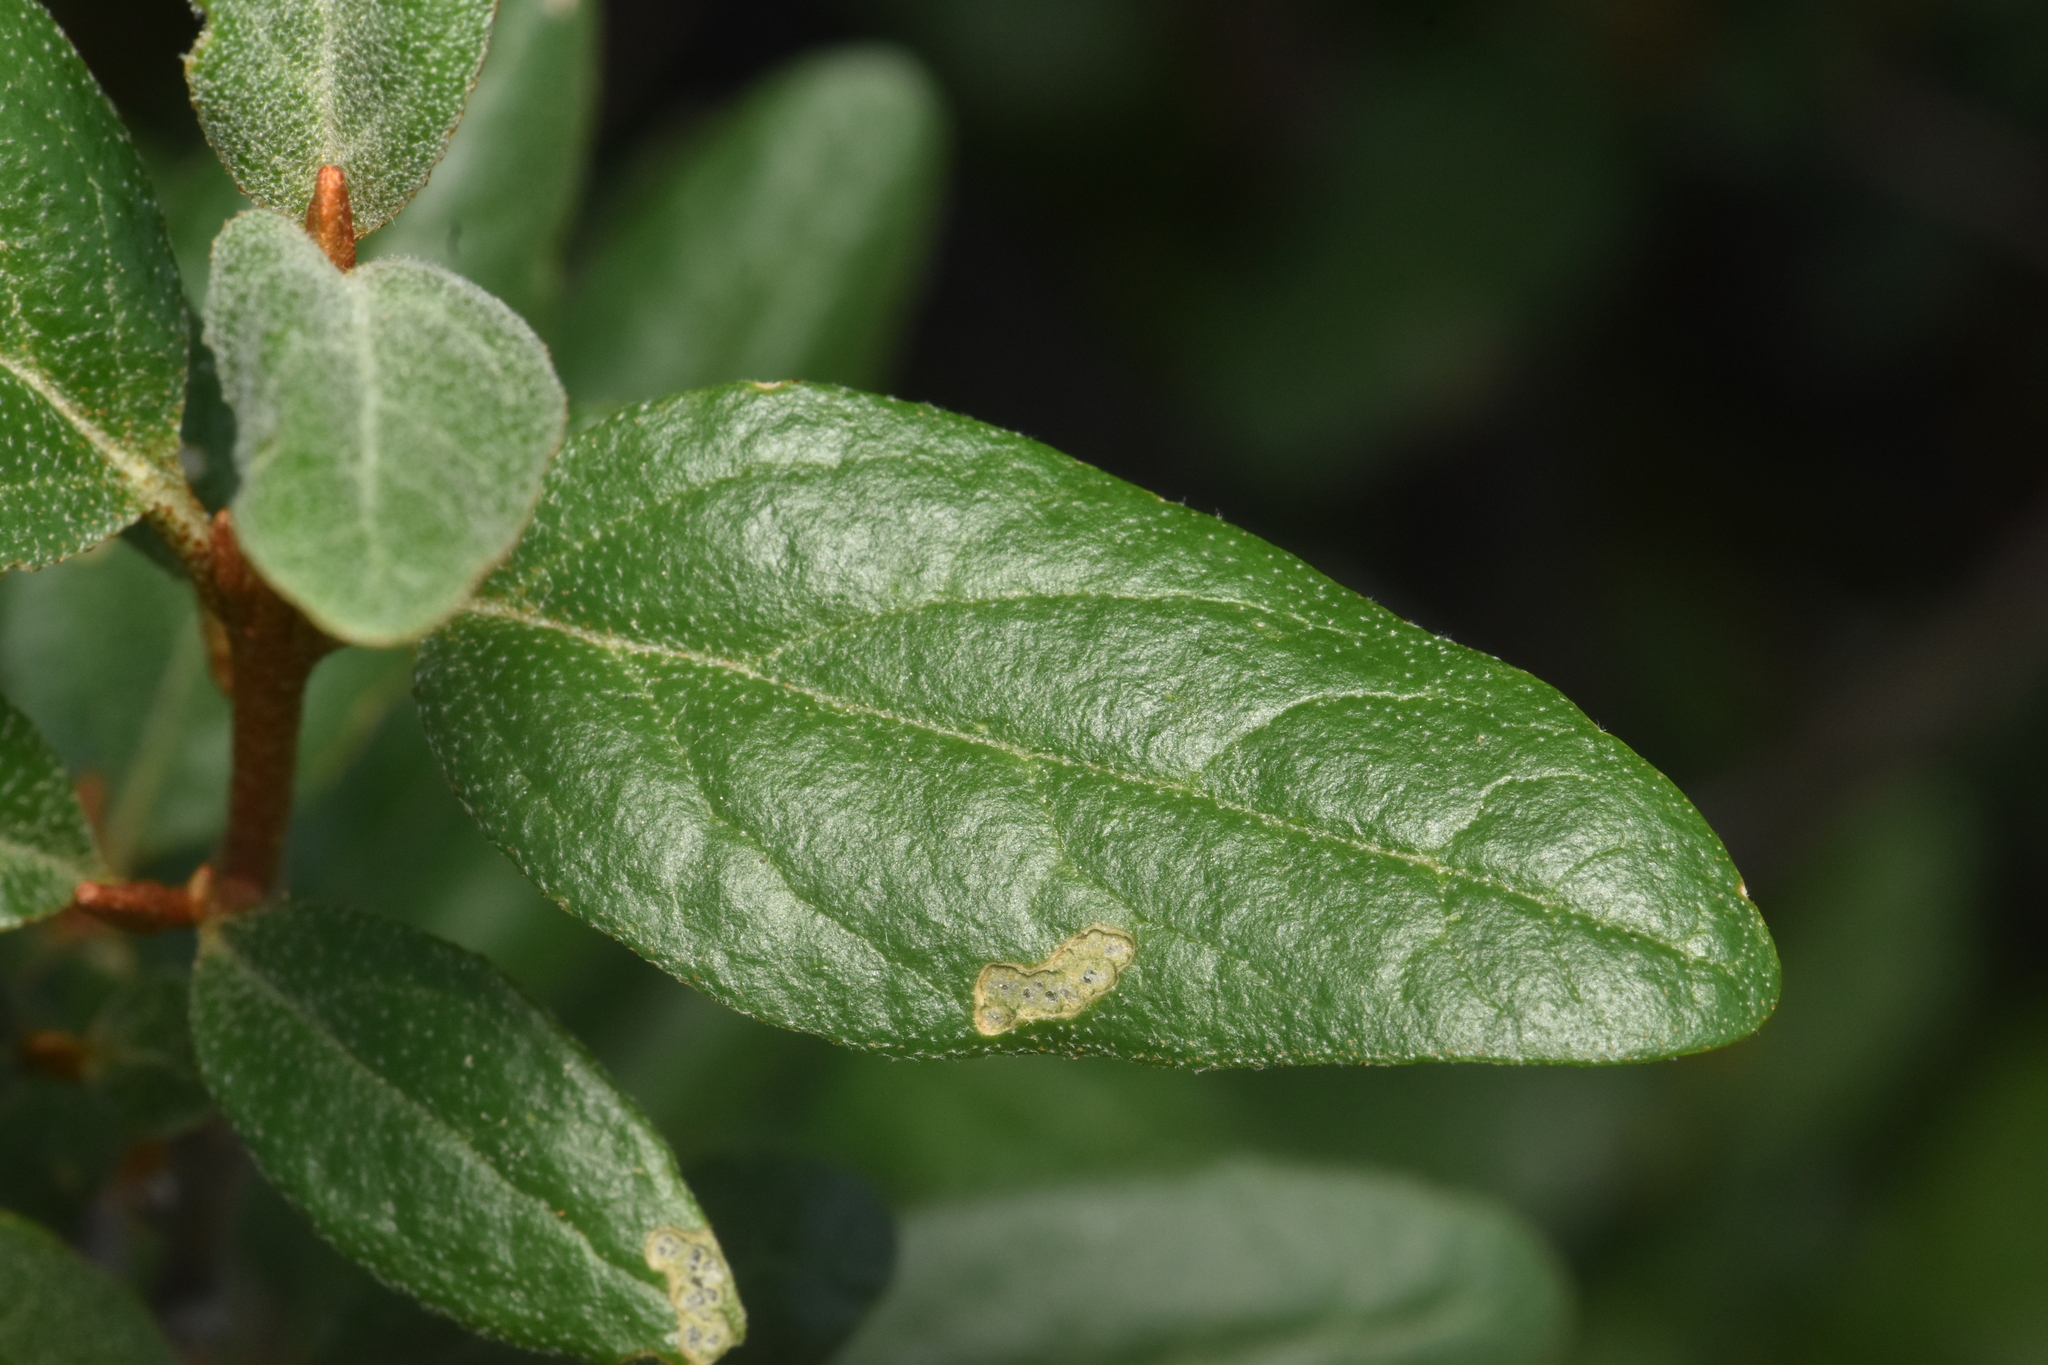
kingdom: Plantae
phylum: Tracheophyta
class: Magnoliopsida
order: Rosales
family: Elaeagnaceae
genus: Shepherdia
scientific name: Shepherdia canadensis
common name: Soapberry
